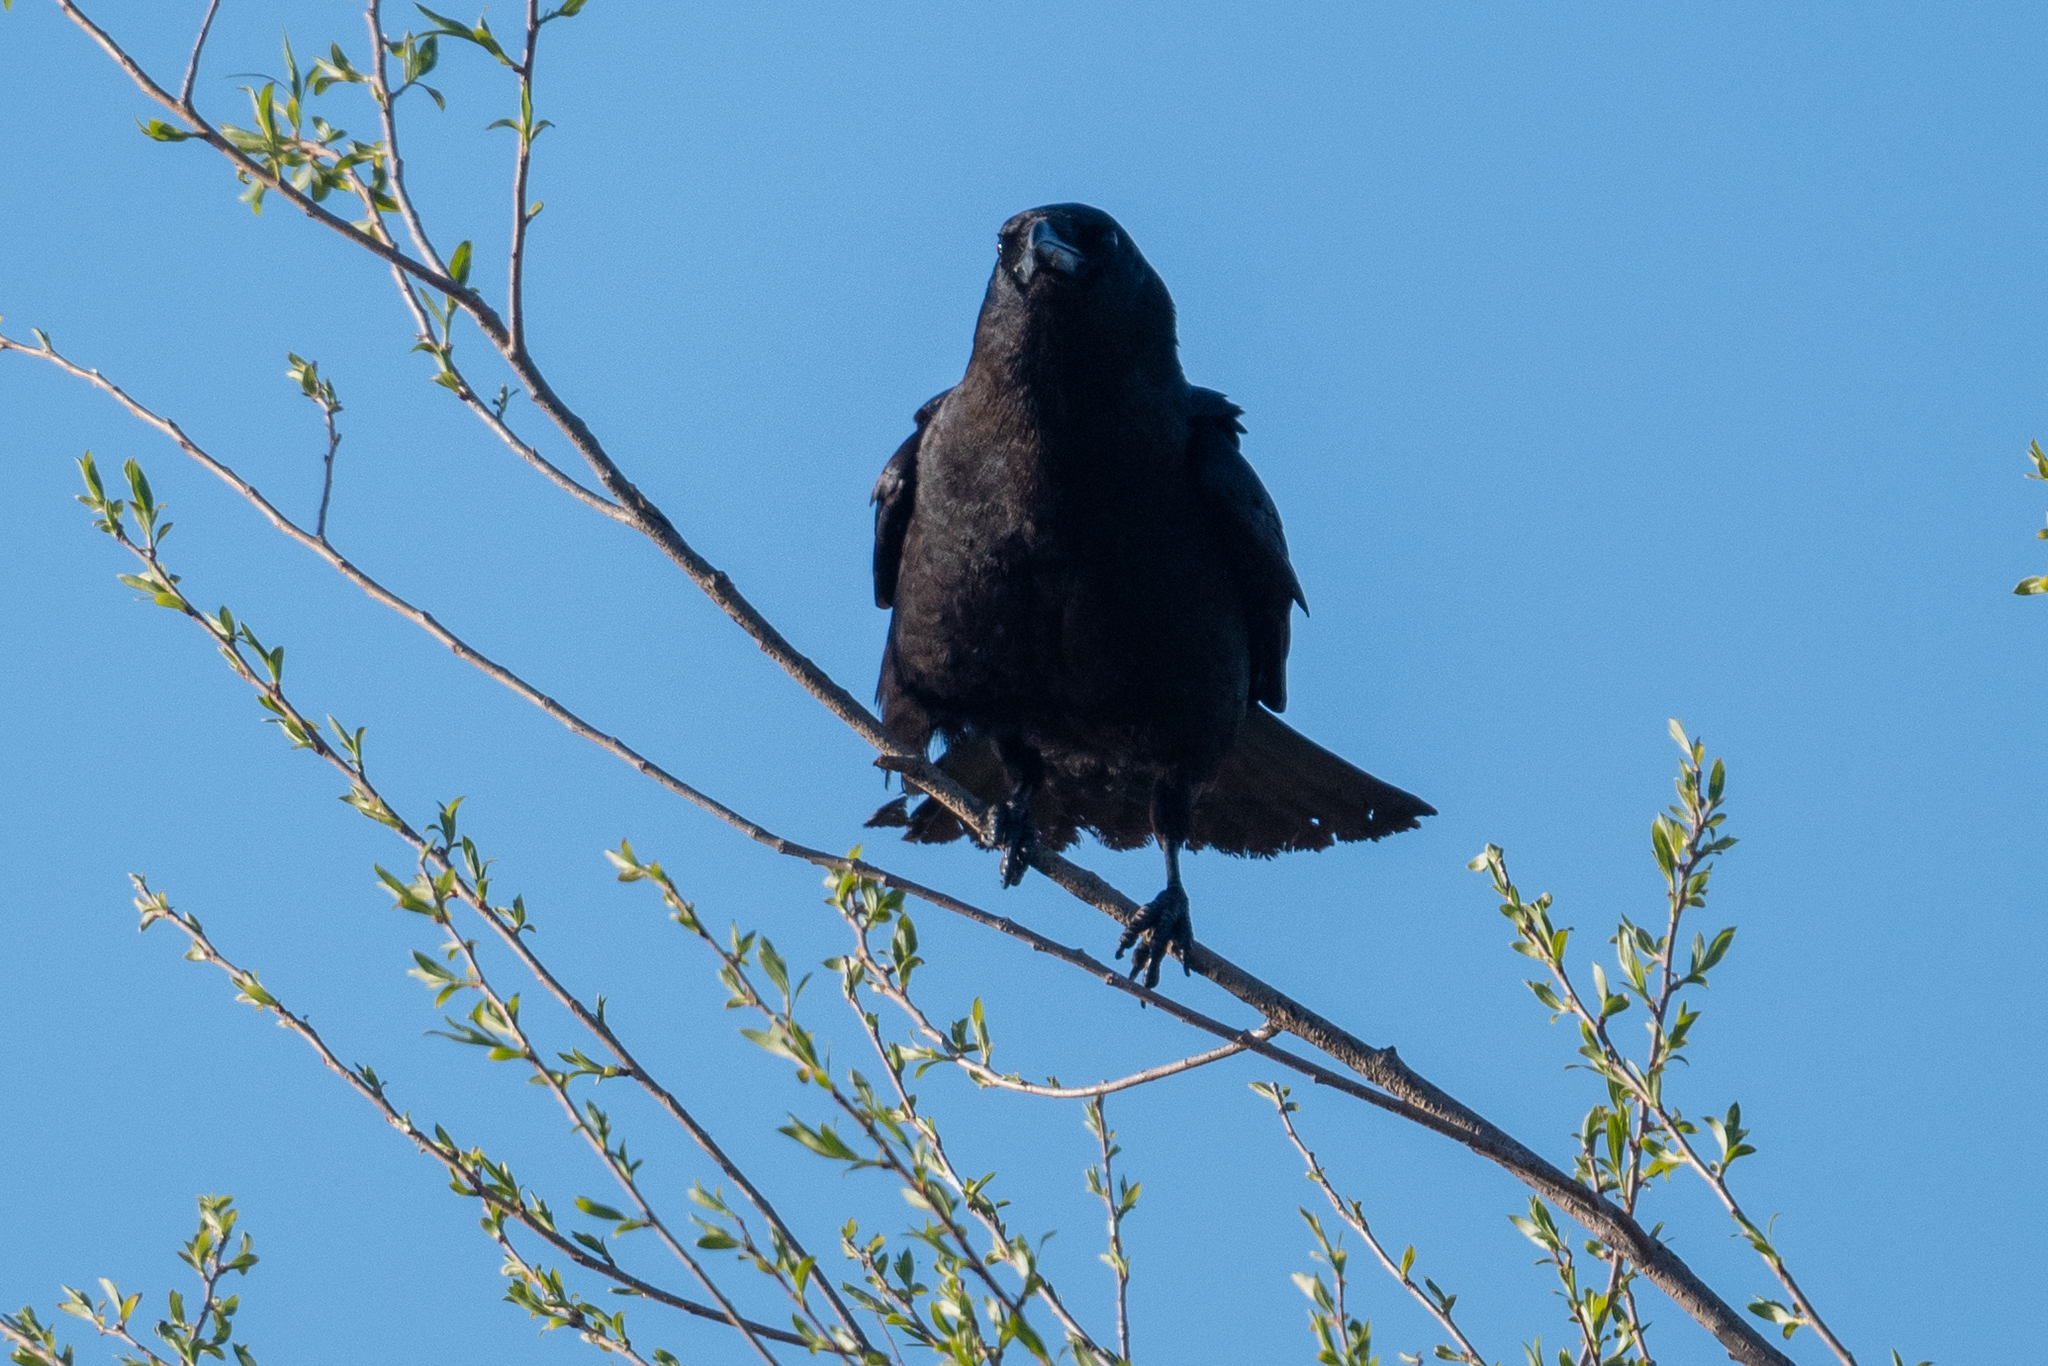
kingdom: Animalia
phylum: Chordata
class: Aves
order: Passeriformes
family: Corvidae
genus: Corvus
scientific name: Corvus brachyrhynchos
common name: American crow
